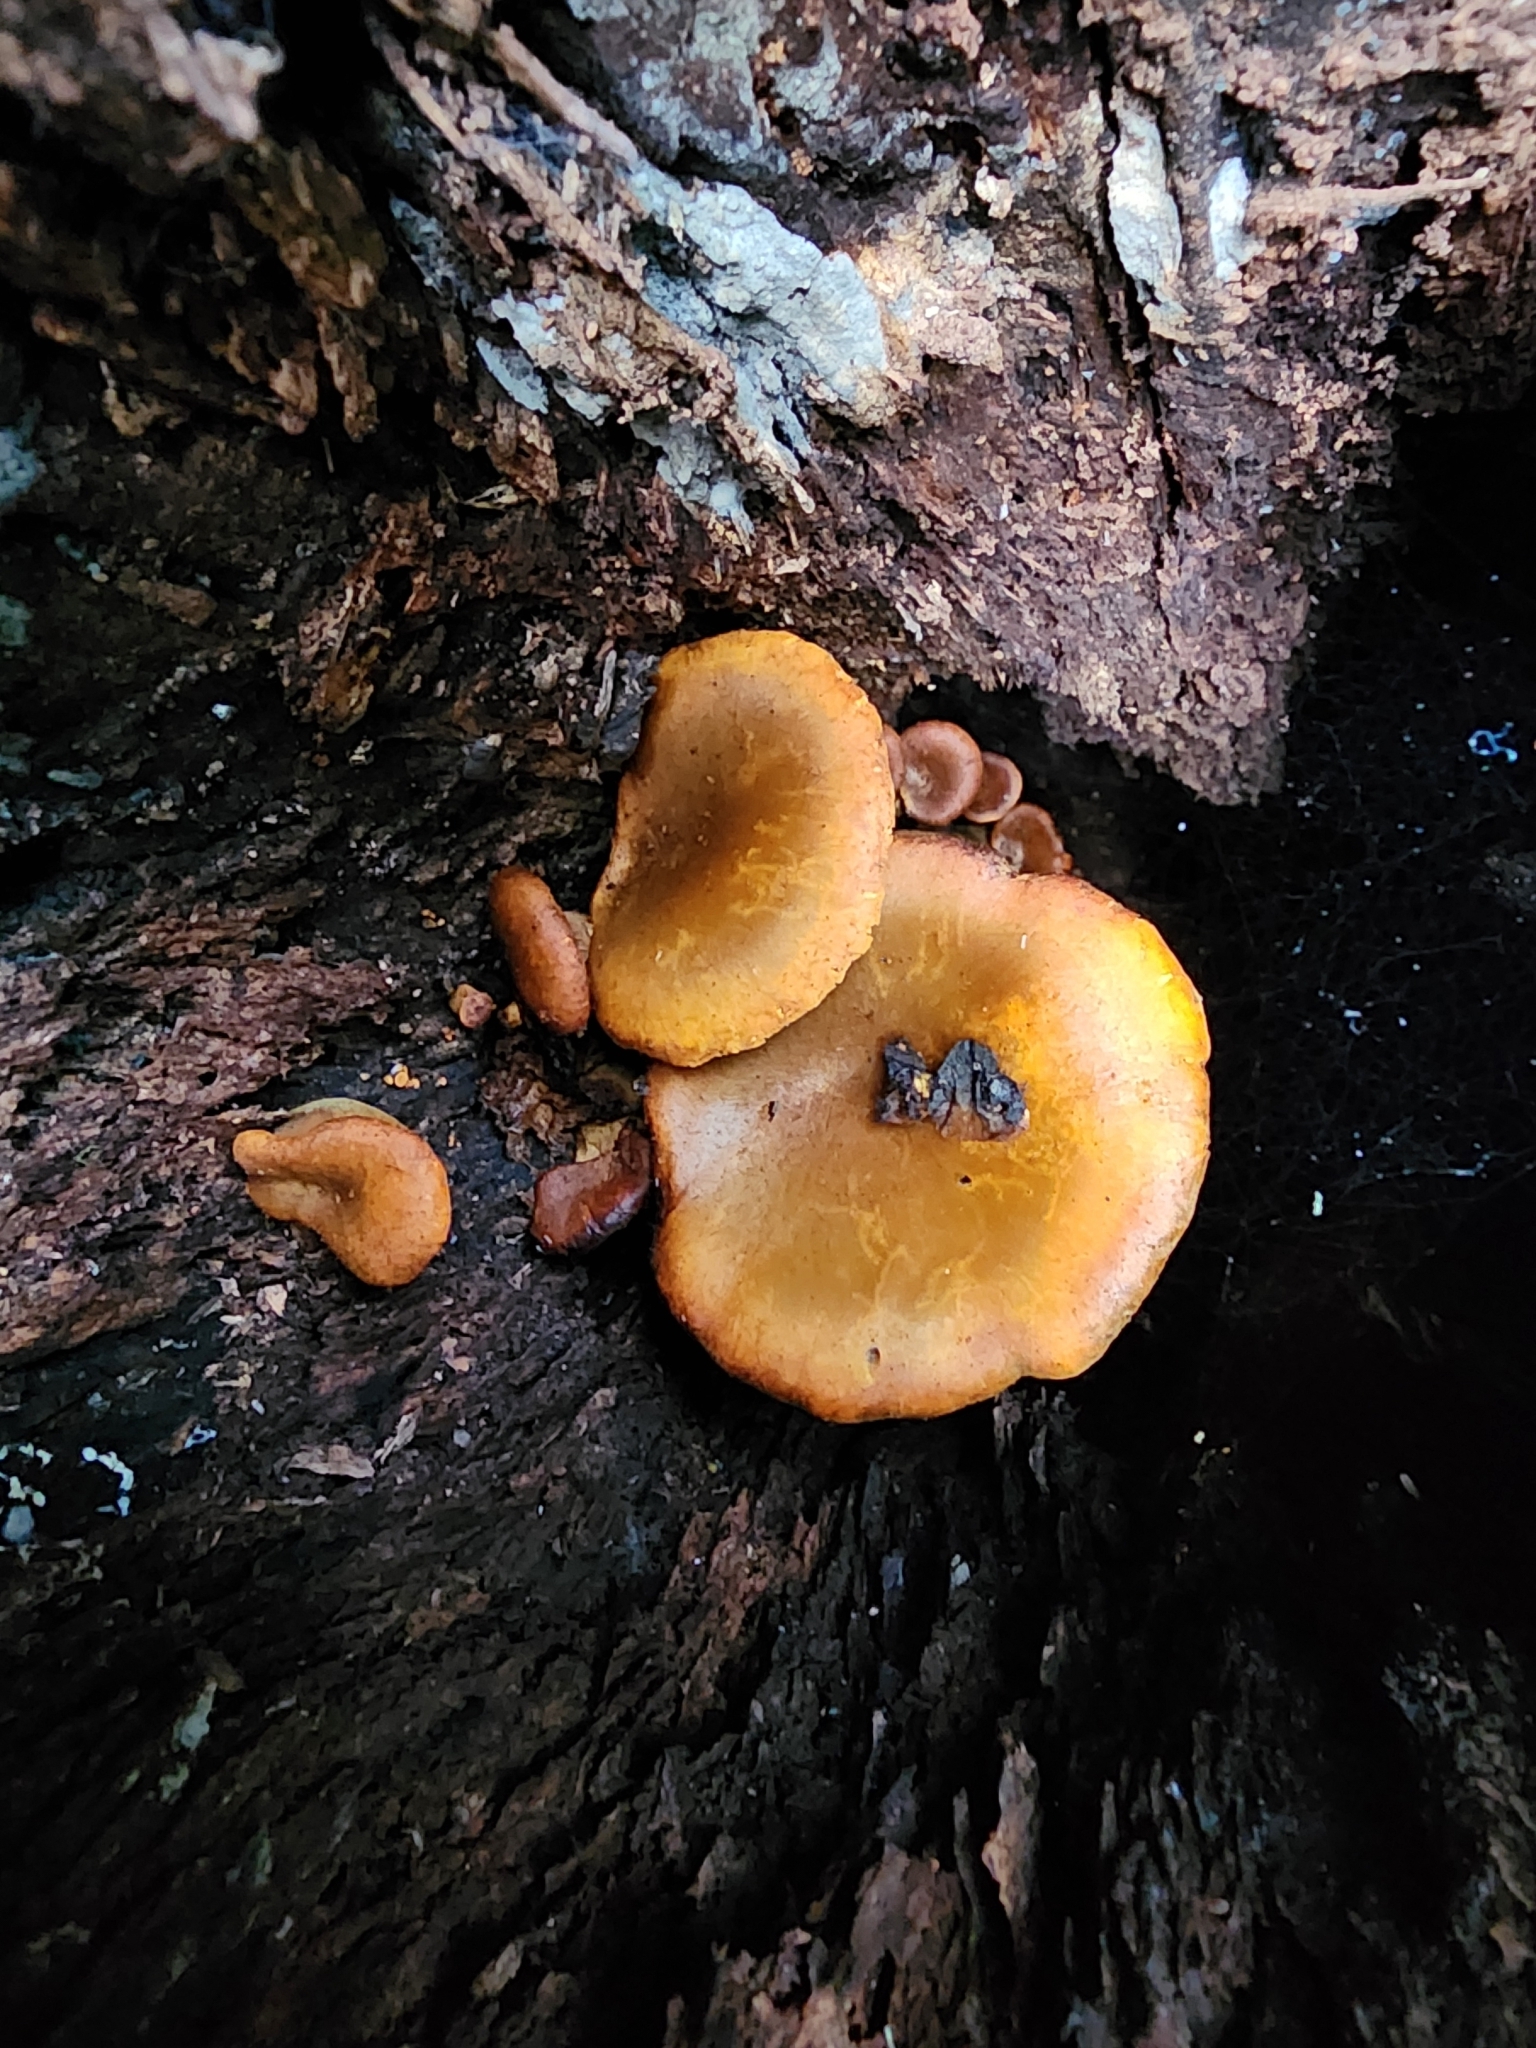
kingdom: Fungi
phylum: Basidiomycota
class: Agaricomycetes
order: Agaricales
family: Omphalotaceae
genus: Omphalotus
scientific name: Omphalotus olivascens
